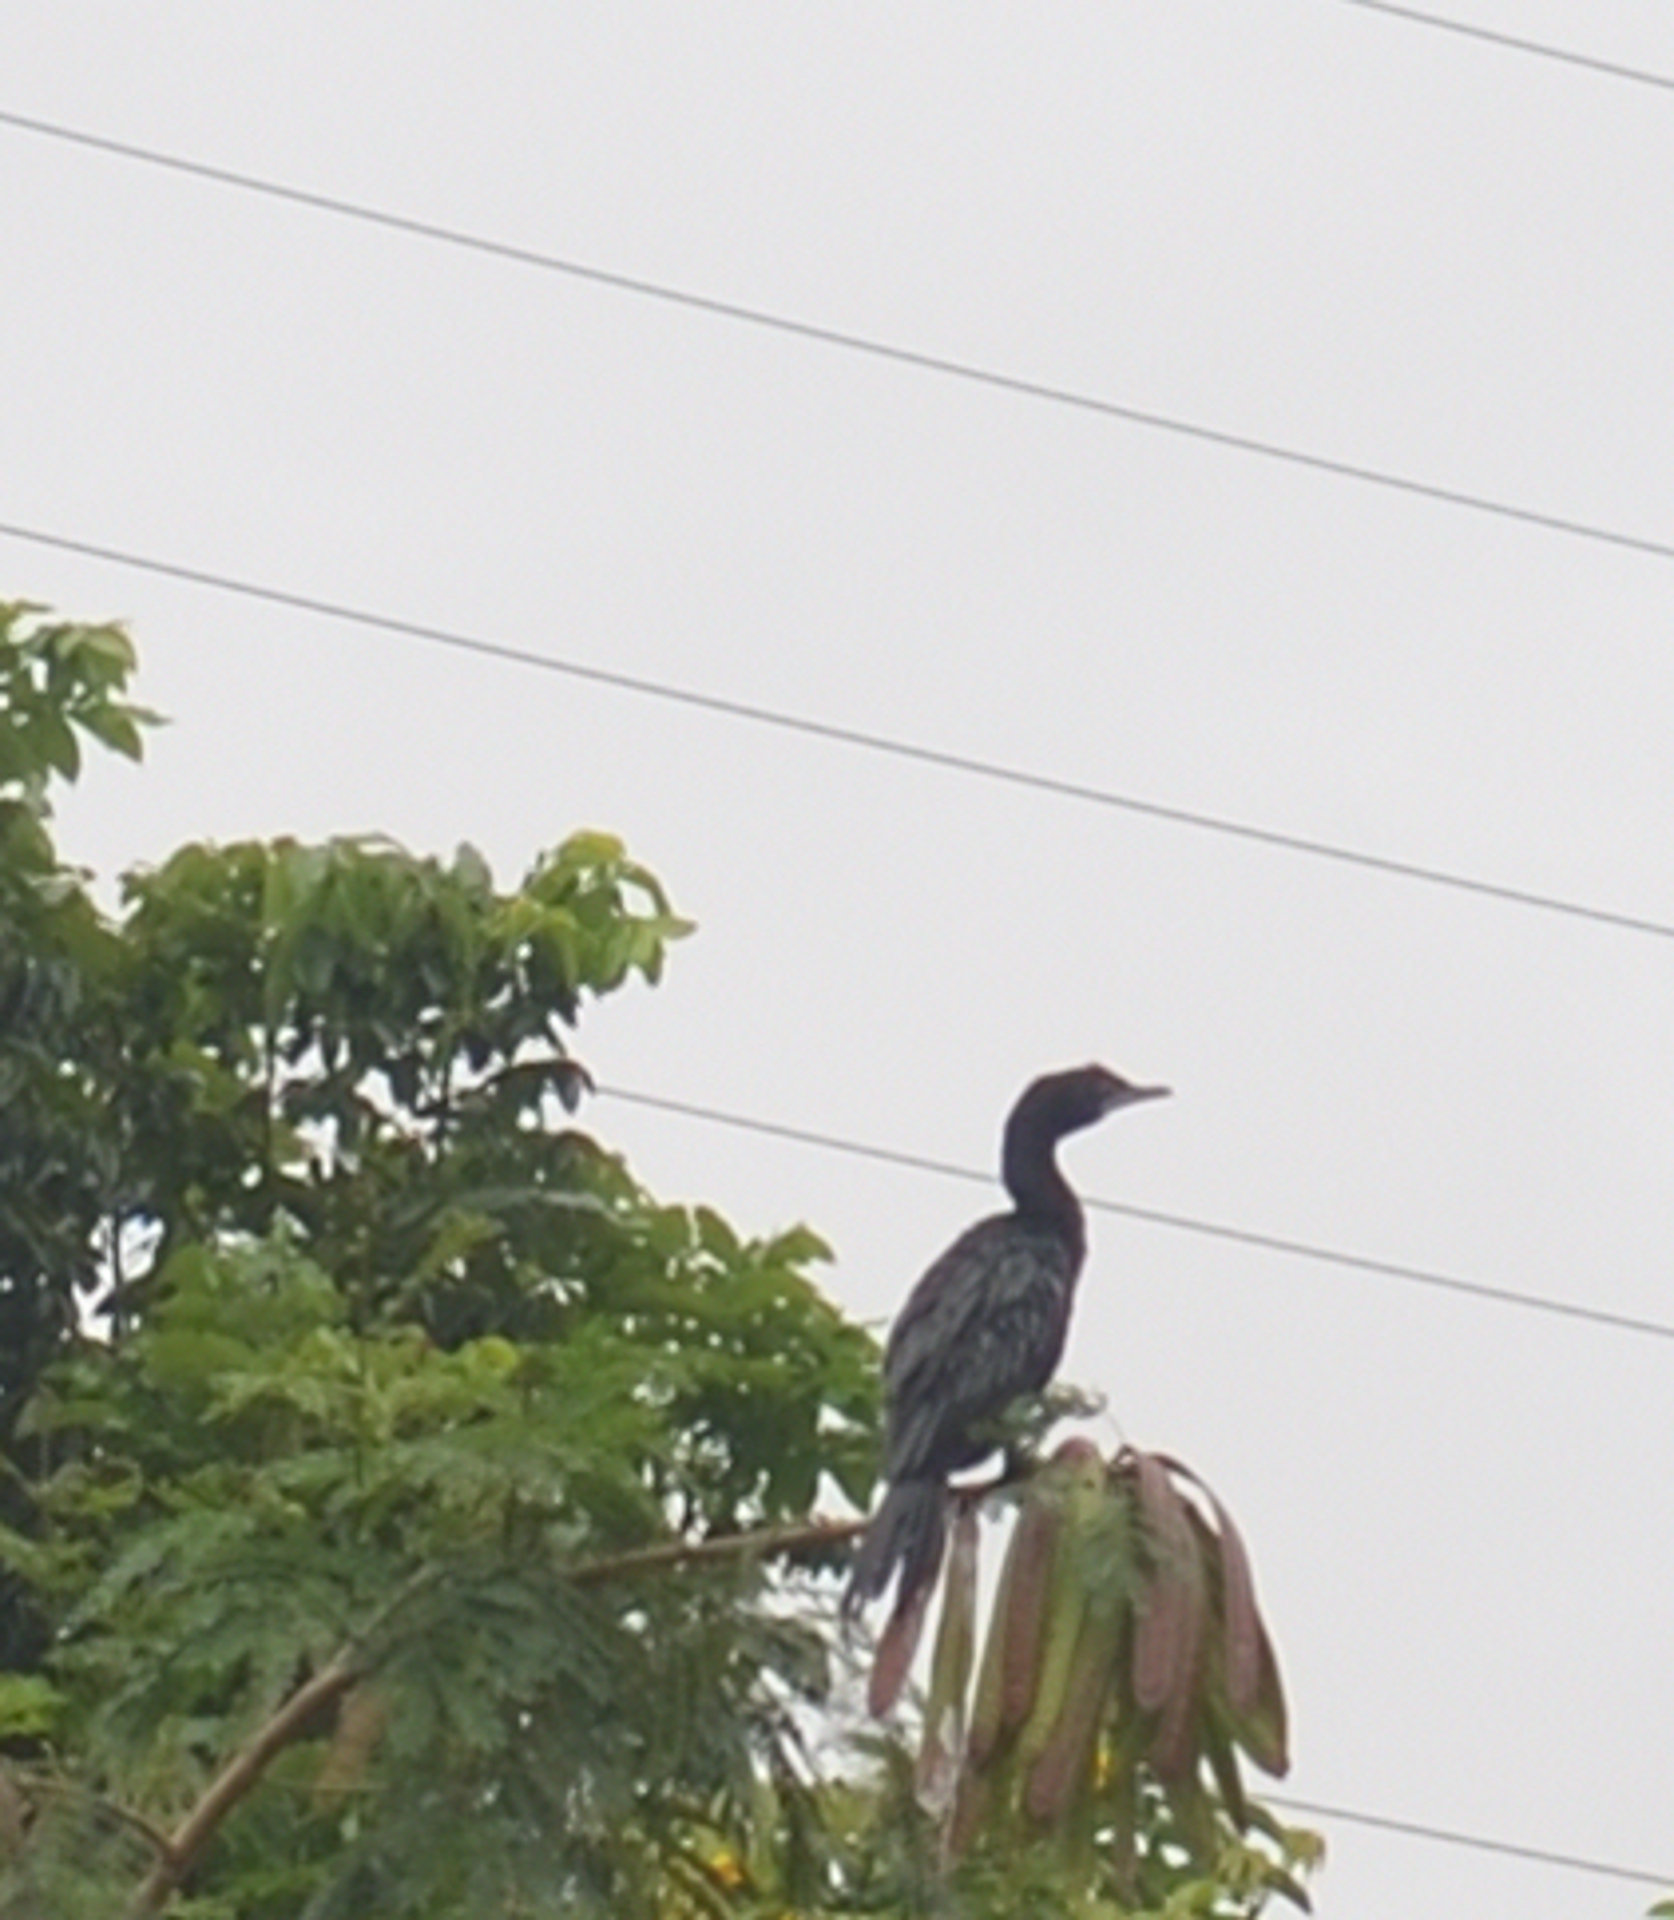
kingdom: Animalia
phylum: Chordata
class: Aves
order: Suliformes
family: Phalacrocoracidae
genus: Microcarbo
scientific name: Microcarbo niger
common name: Little cormorant
